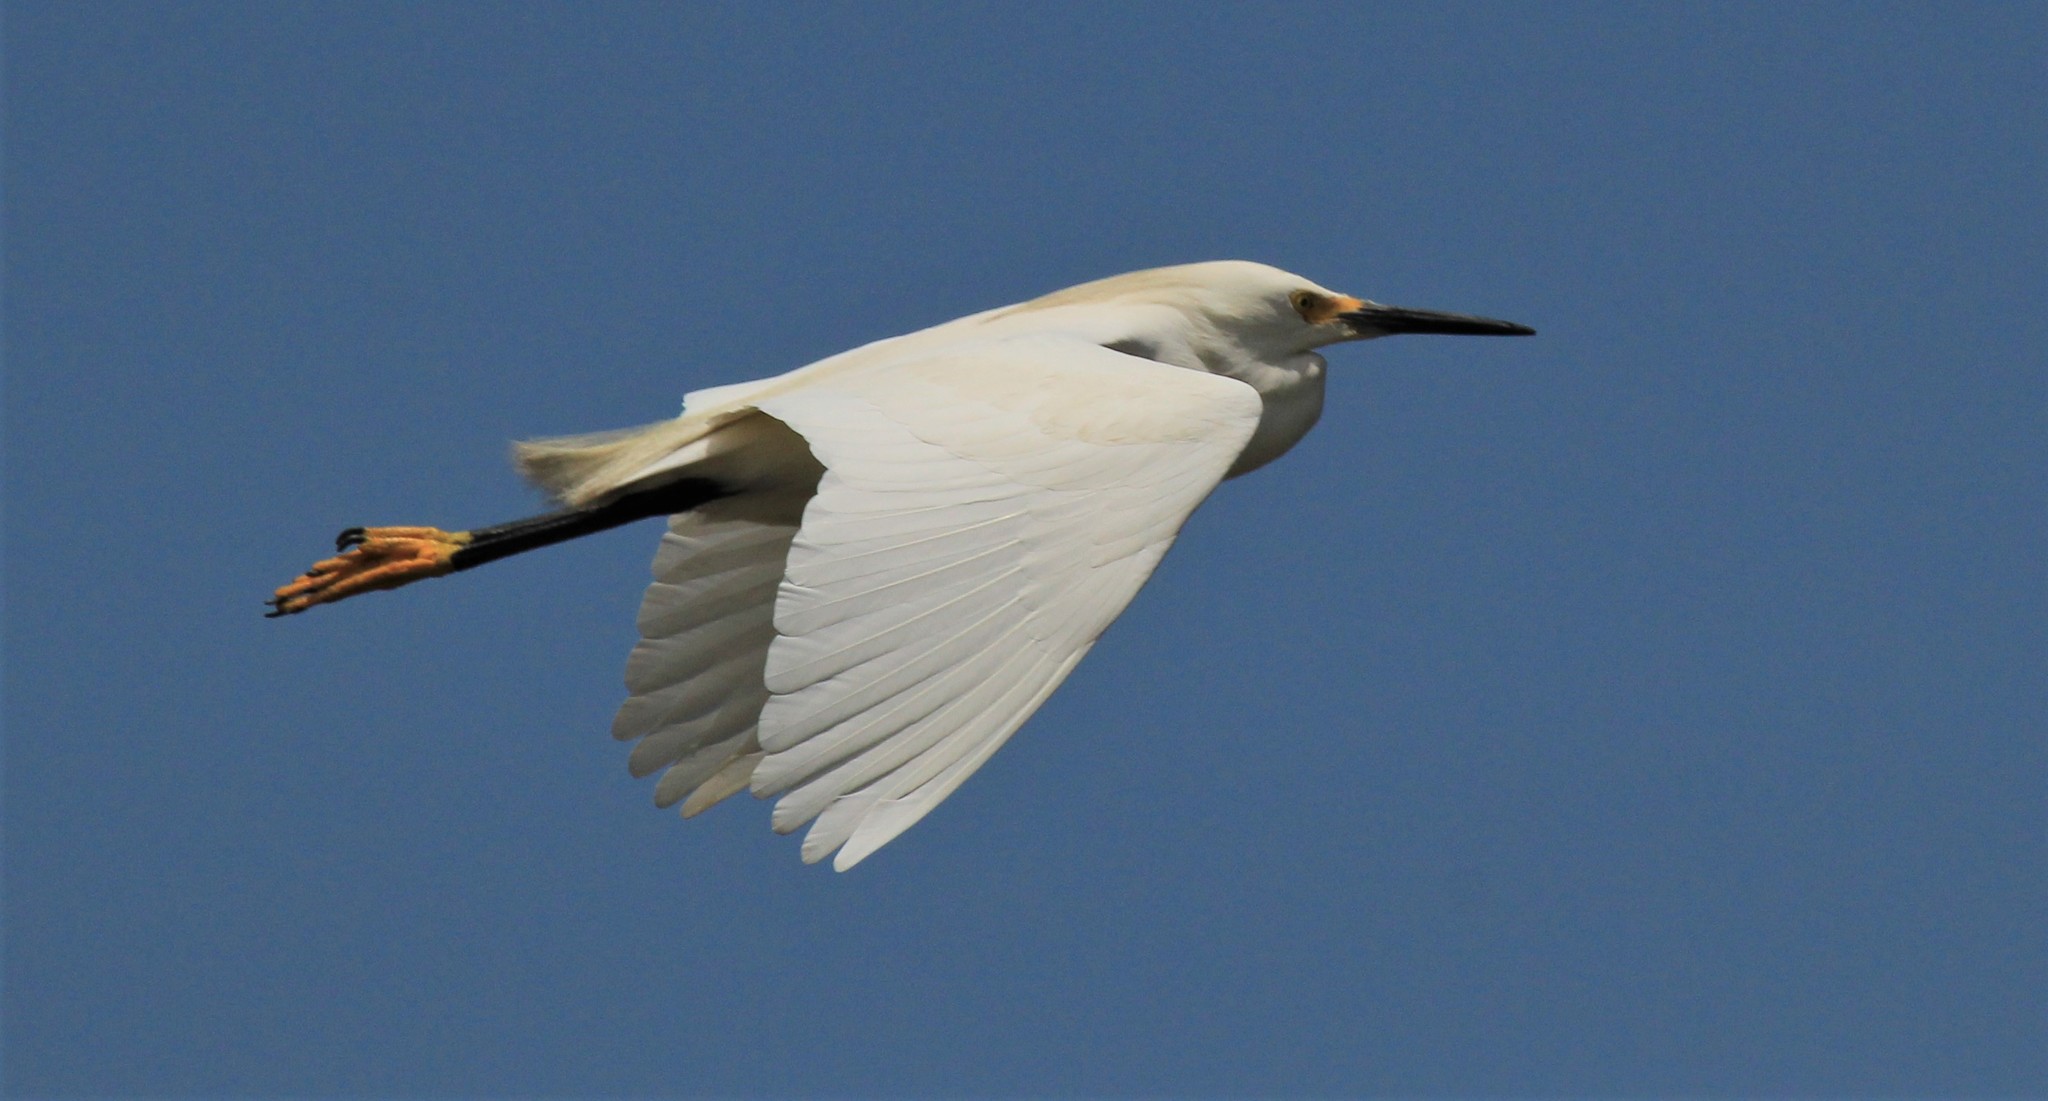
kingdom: Animalia
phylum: Chordata
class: Aves
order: Pelecaniformes
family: Ardeidae
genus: Egretta
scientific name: Egretta thula
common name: Snowy egret
